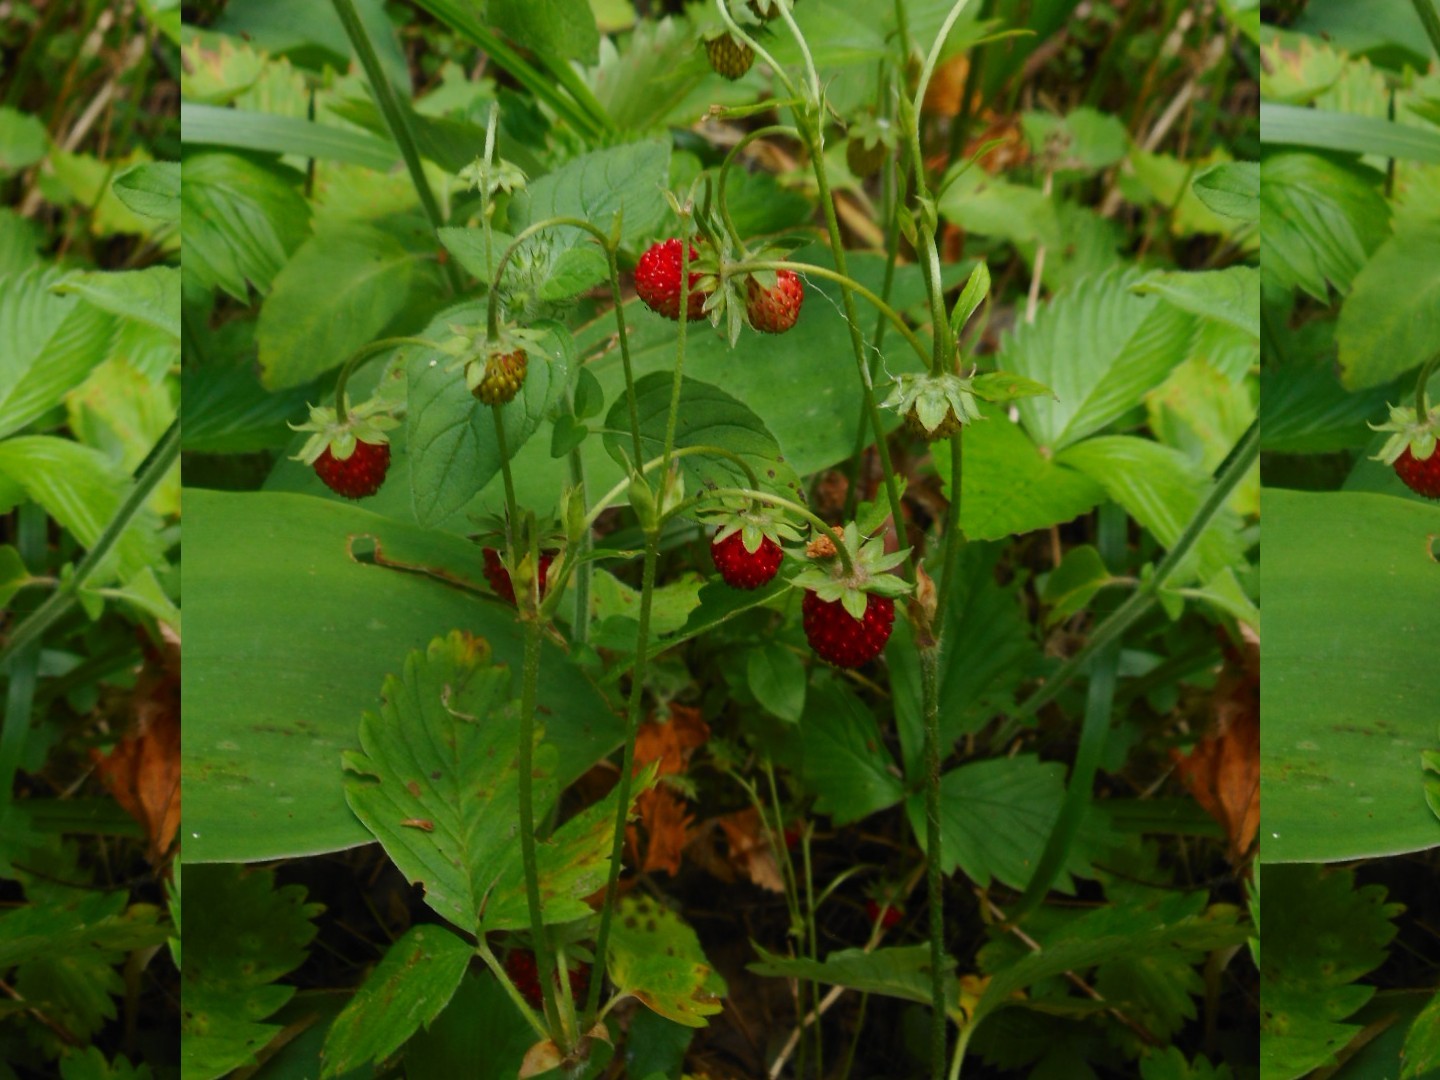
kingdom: Plantae
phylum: Tracheophyta
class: Magnoliopsida
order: Rosales
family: Rosaceae
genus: Fragaria
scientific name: Fragaria vesca
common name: Wild strawberry
